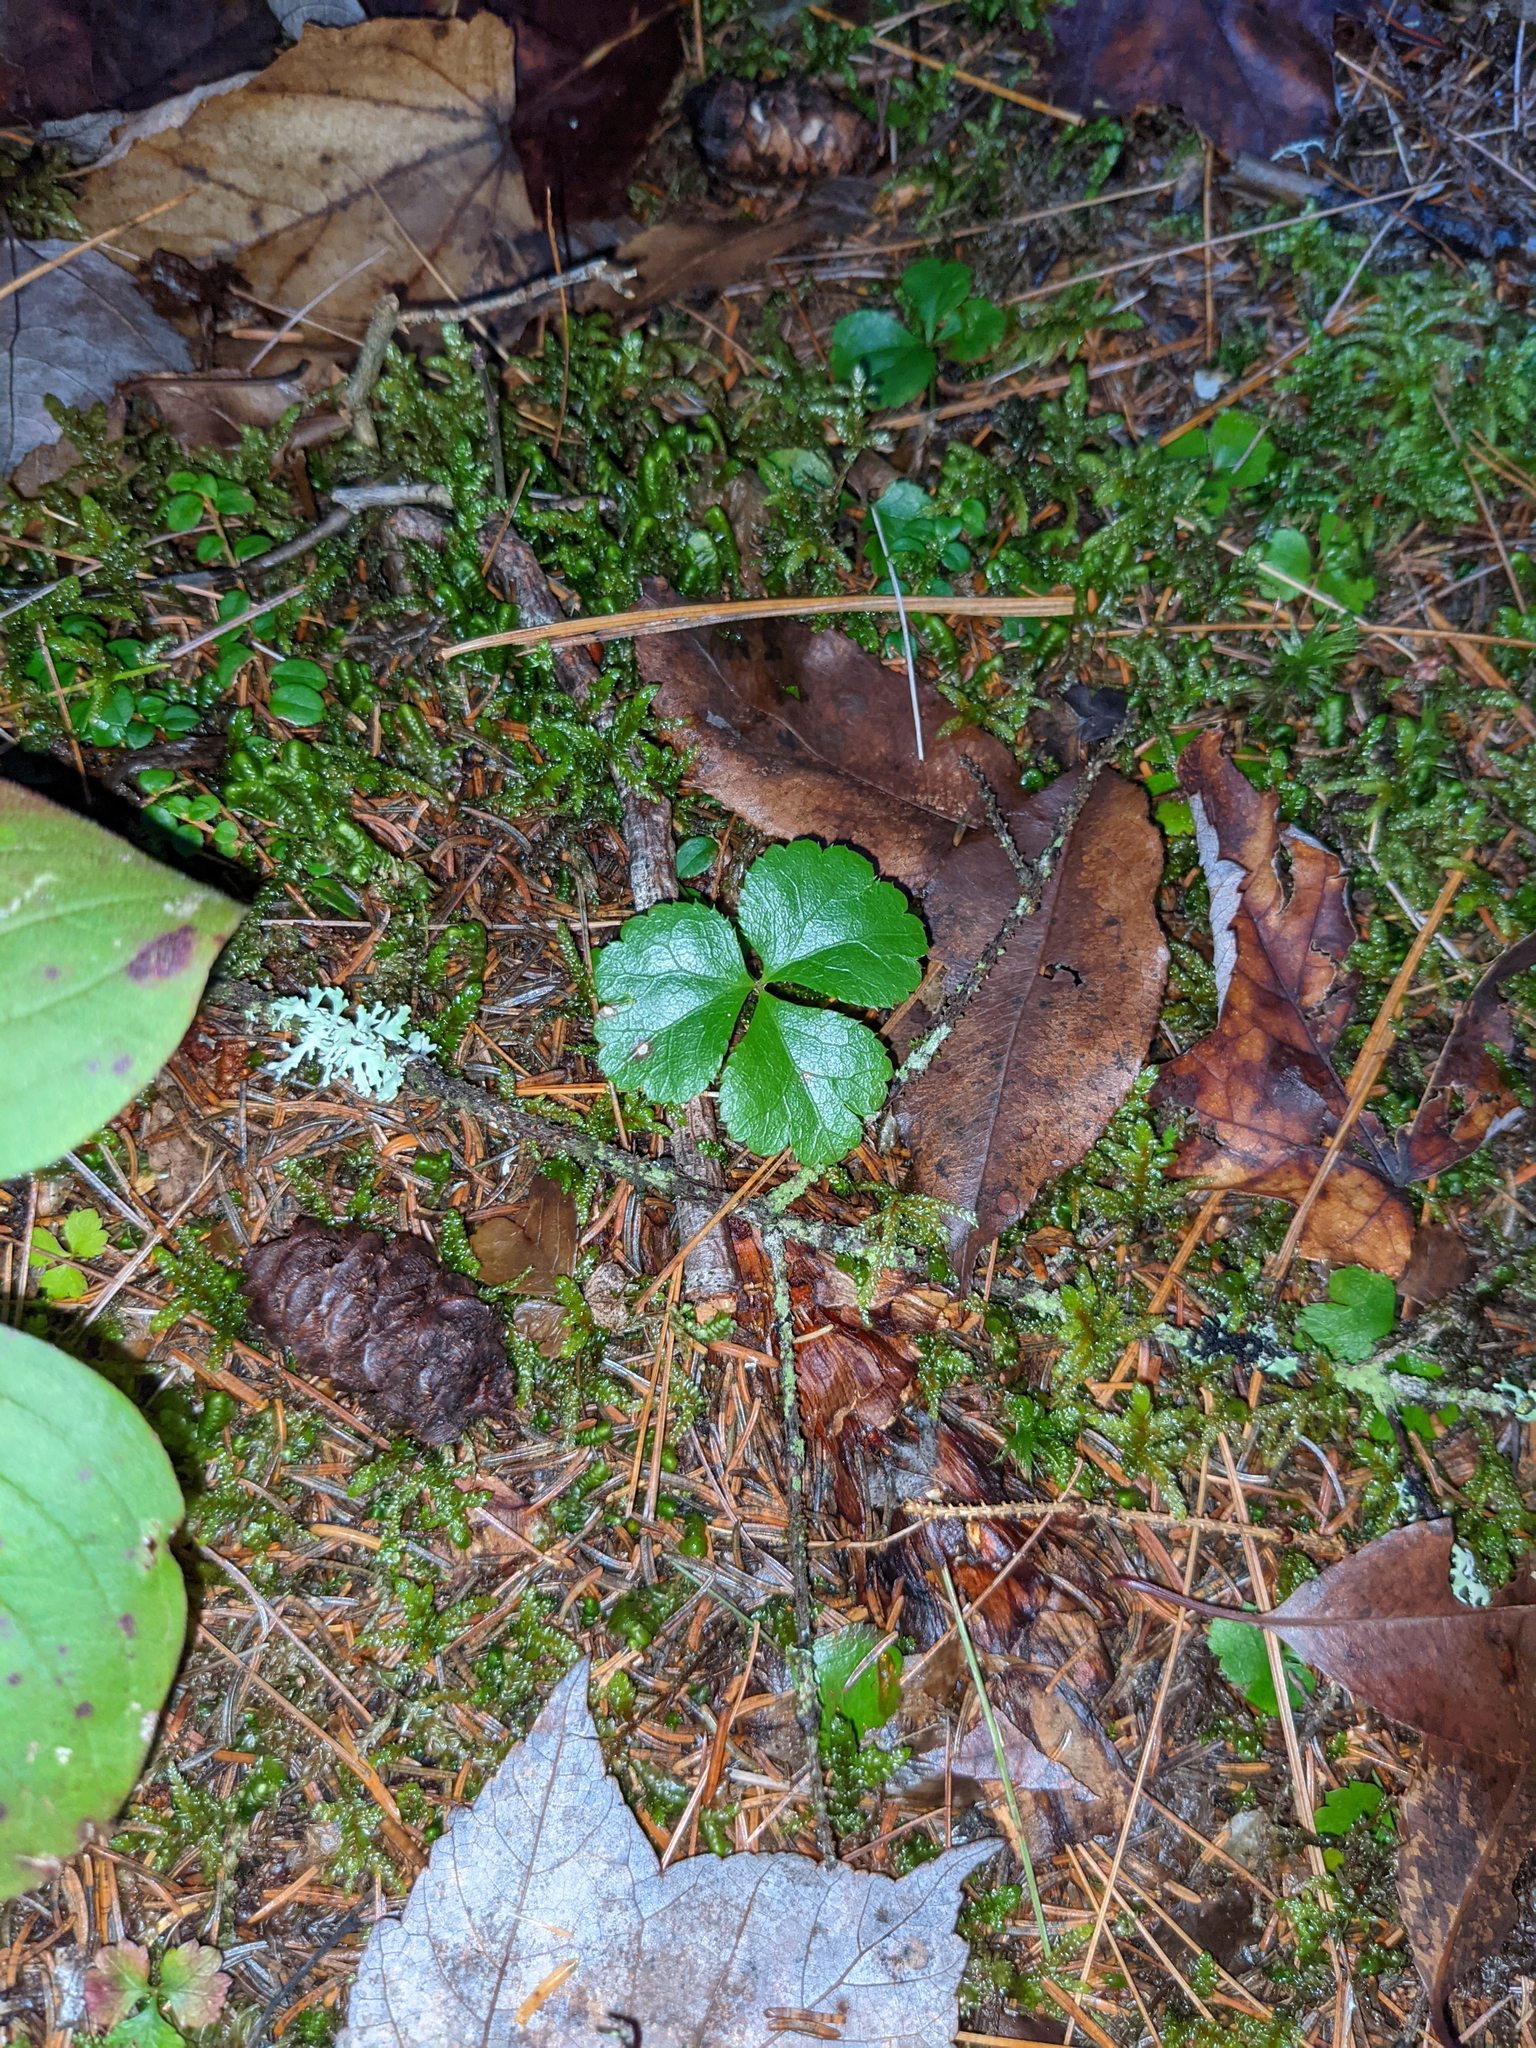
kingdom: Plantae
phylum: Tracheophyta
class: Magnoliopsida
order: Ranunculales
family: Ranunculaceae
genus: Coptis
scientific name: Coptis trifolia
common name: Canker-root
